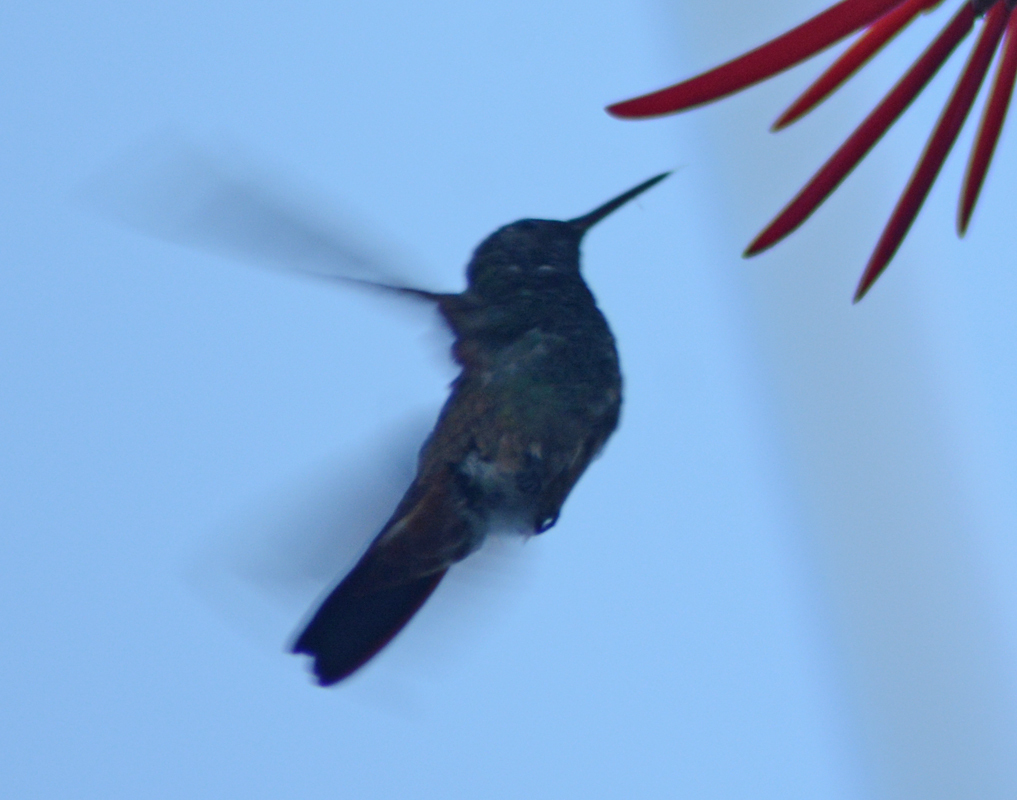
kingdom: Animalia
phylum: Chordata
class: Aves
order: Apodiformes
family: Trochilidae
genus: Saucerottia
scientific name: Saucerottia beryllina
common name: Berylline hummingbird
